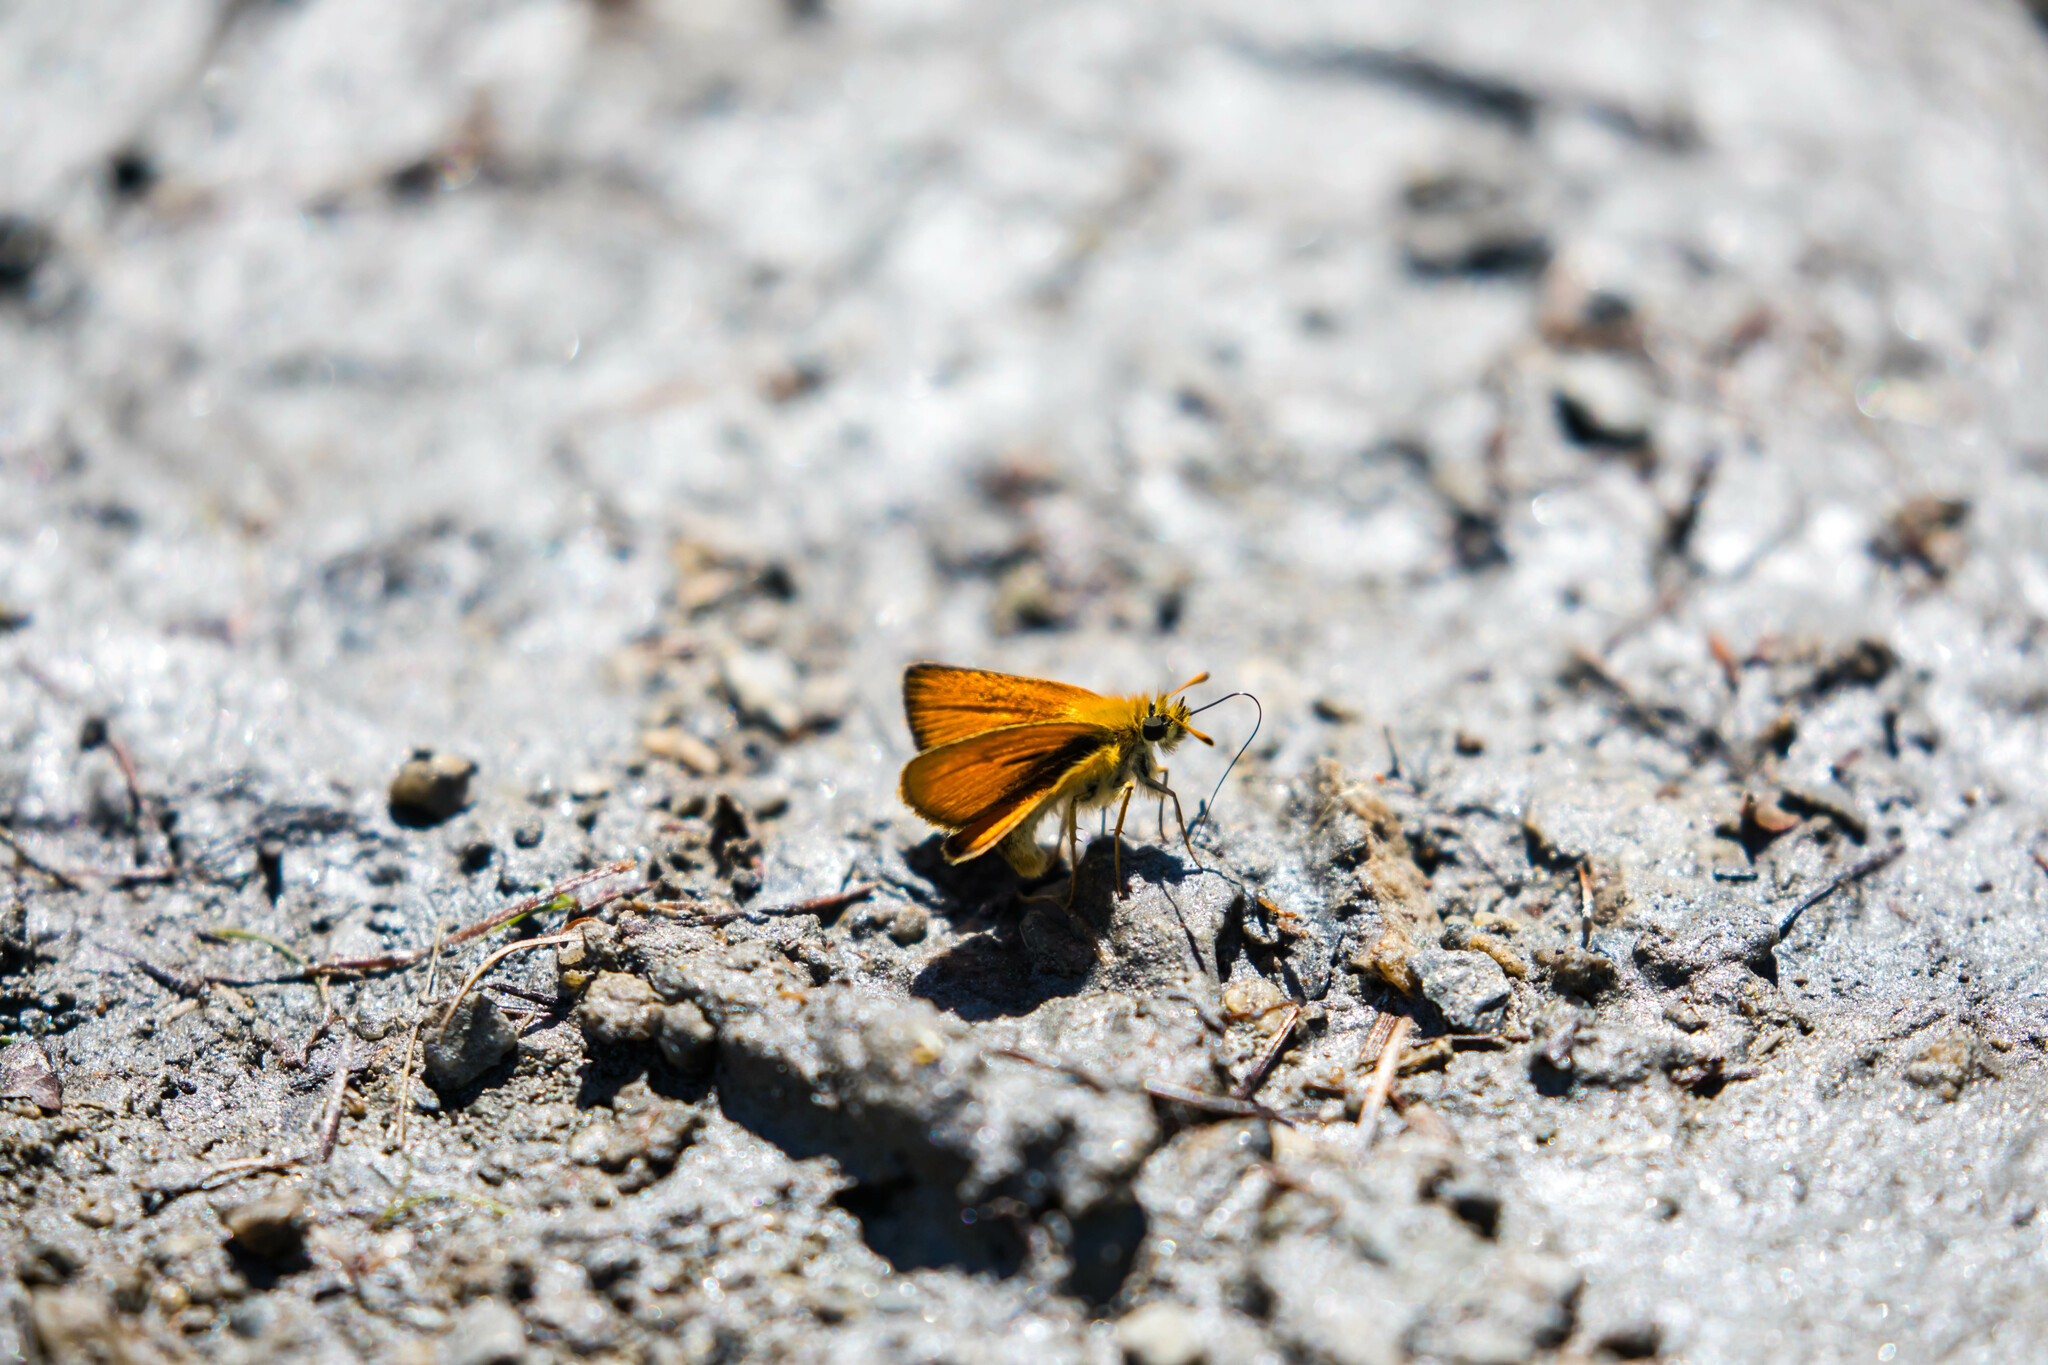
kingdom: Animalia
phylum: Arthropoda
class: Insecta
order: Lepidoptera
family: Hesperiidae
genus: Thymelicus
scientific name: Thymelicus lineola
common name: Essex skipper
